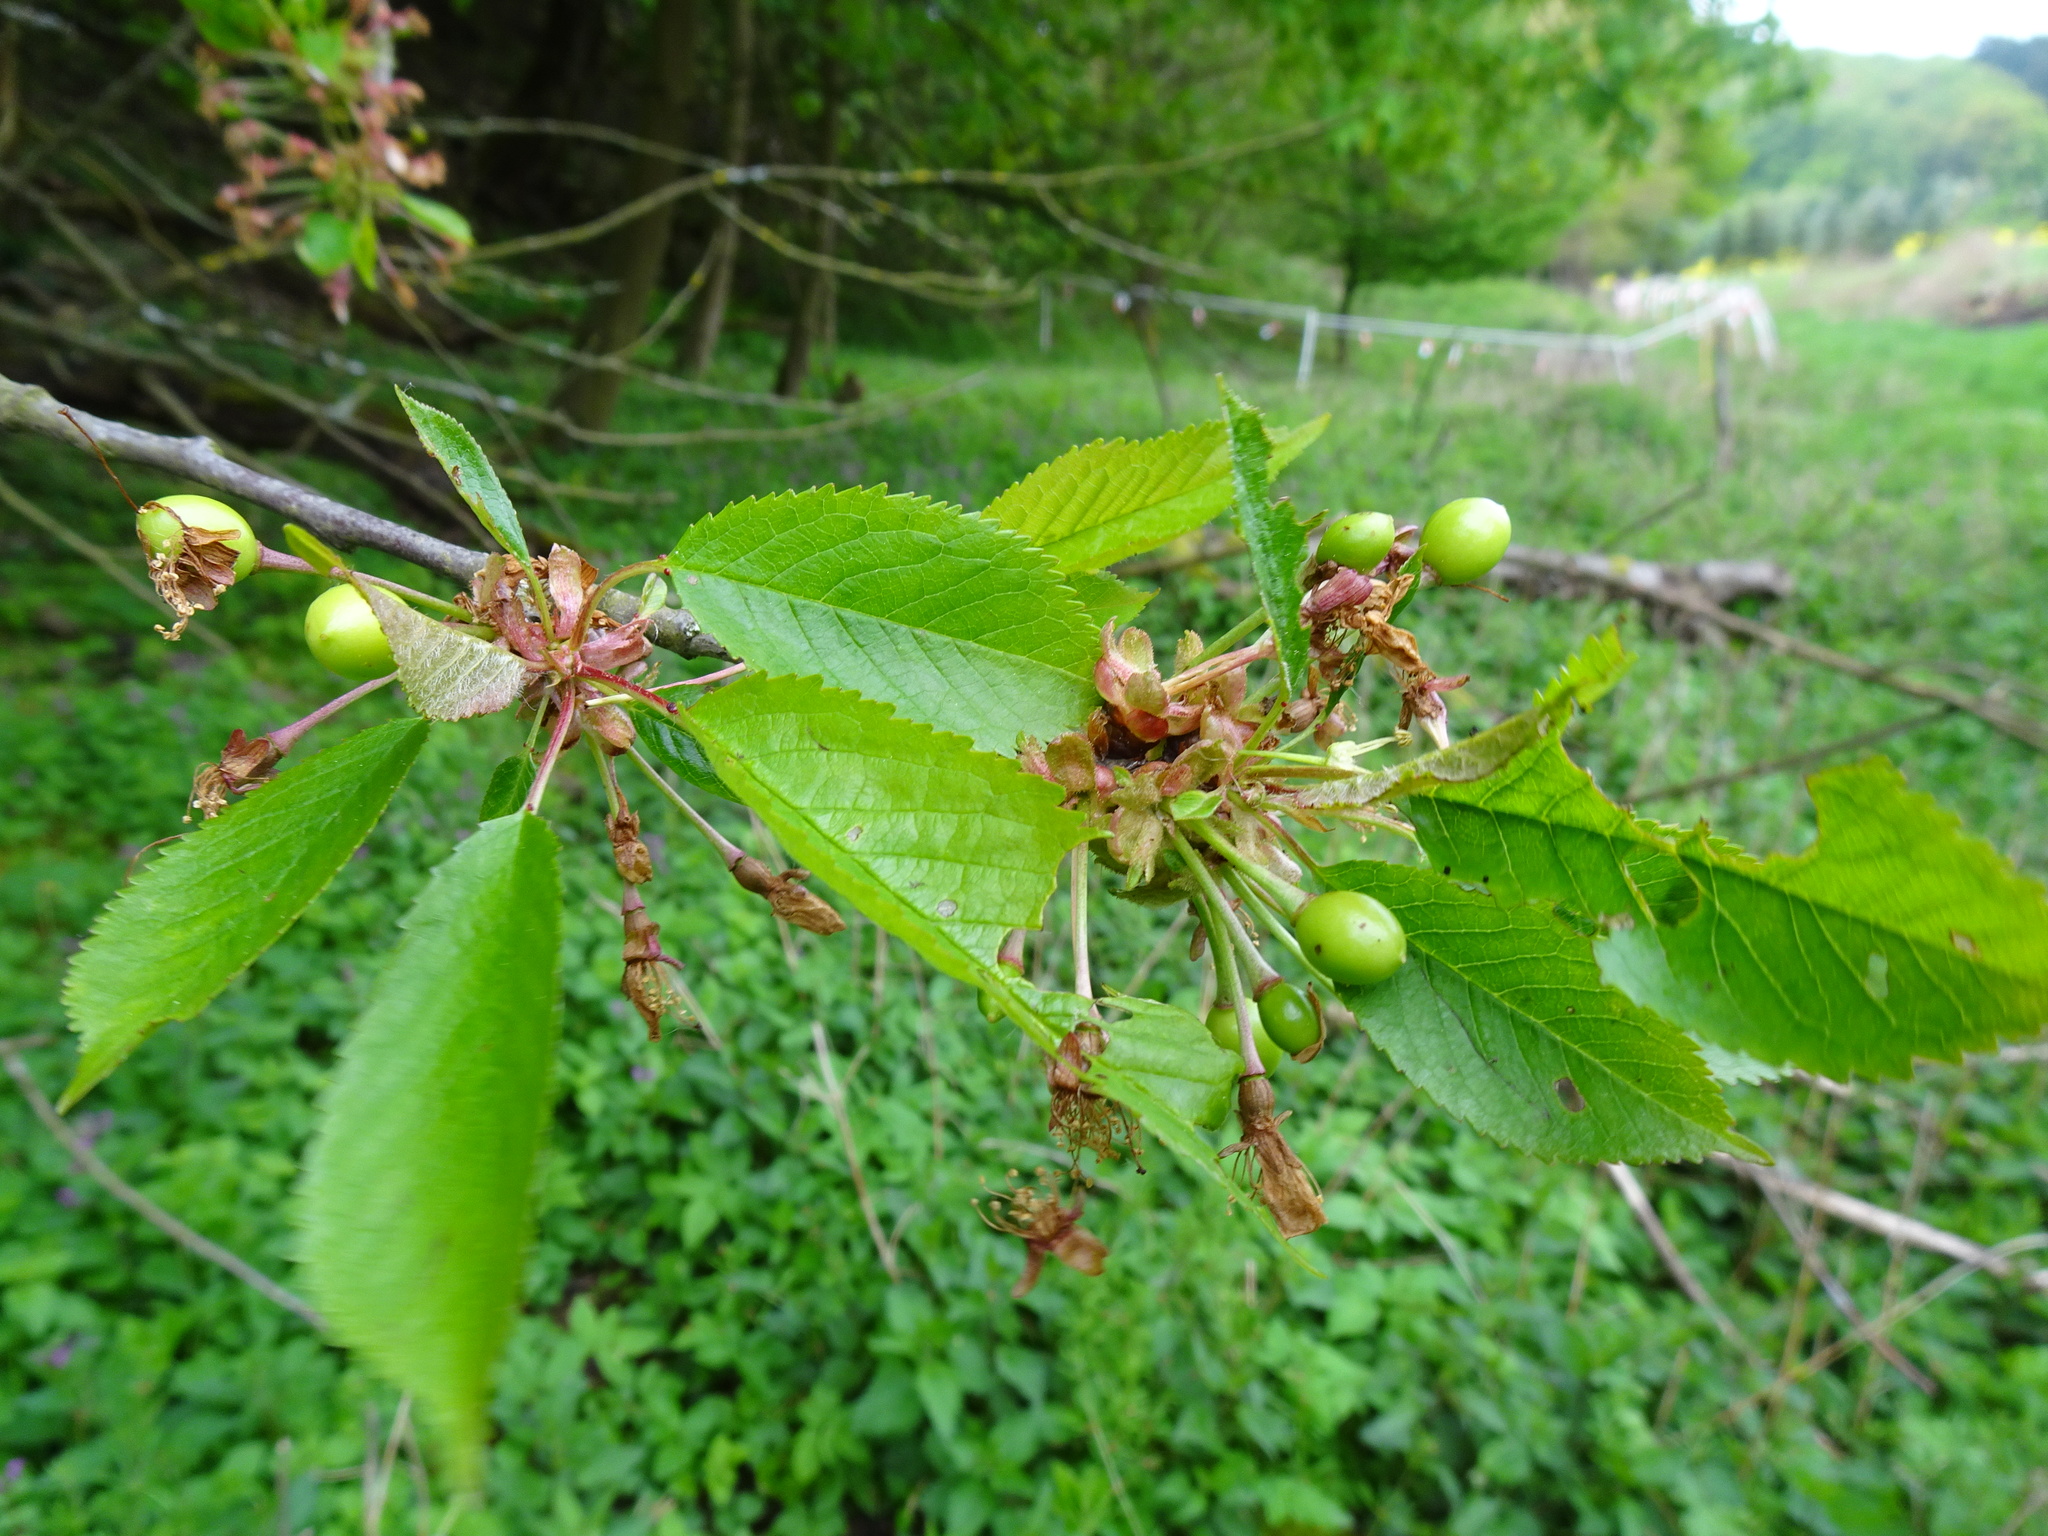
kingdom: Plantae
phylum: Tracheophyta
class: Magnoliopsida
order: Rosales
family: Rosaceae
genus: Prunus
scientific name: Prunus avium
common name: Sweet cherry
